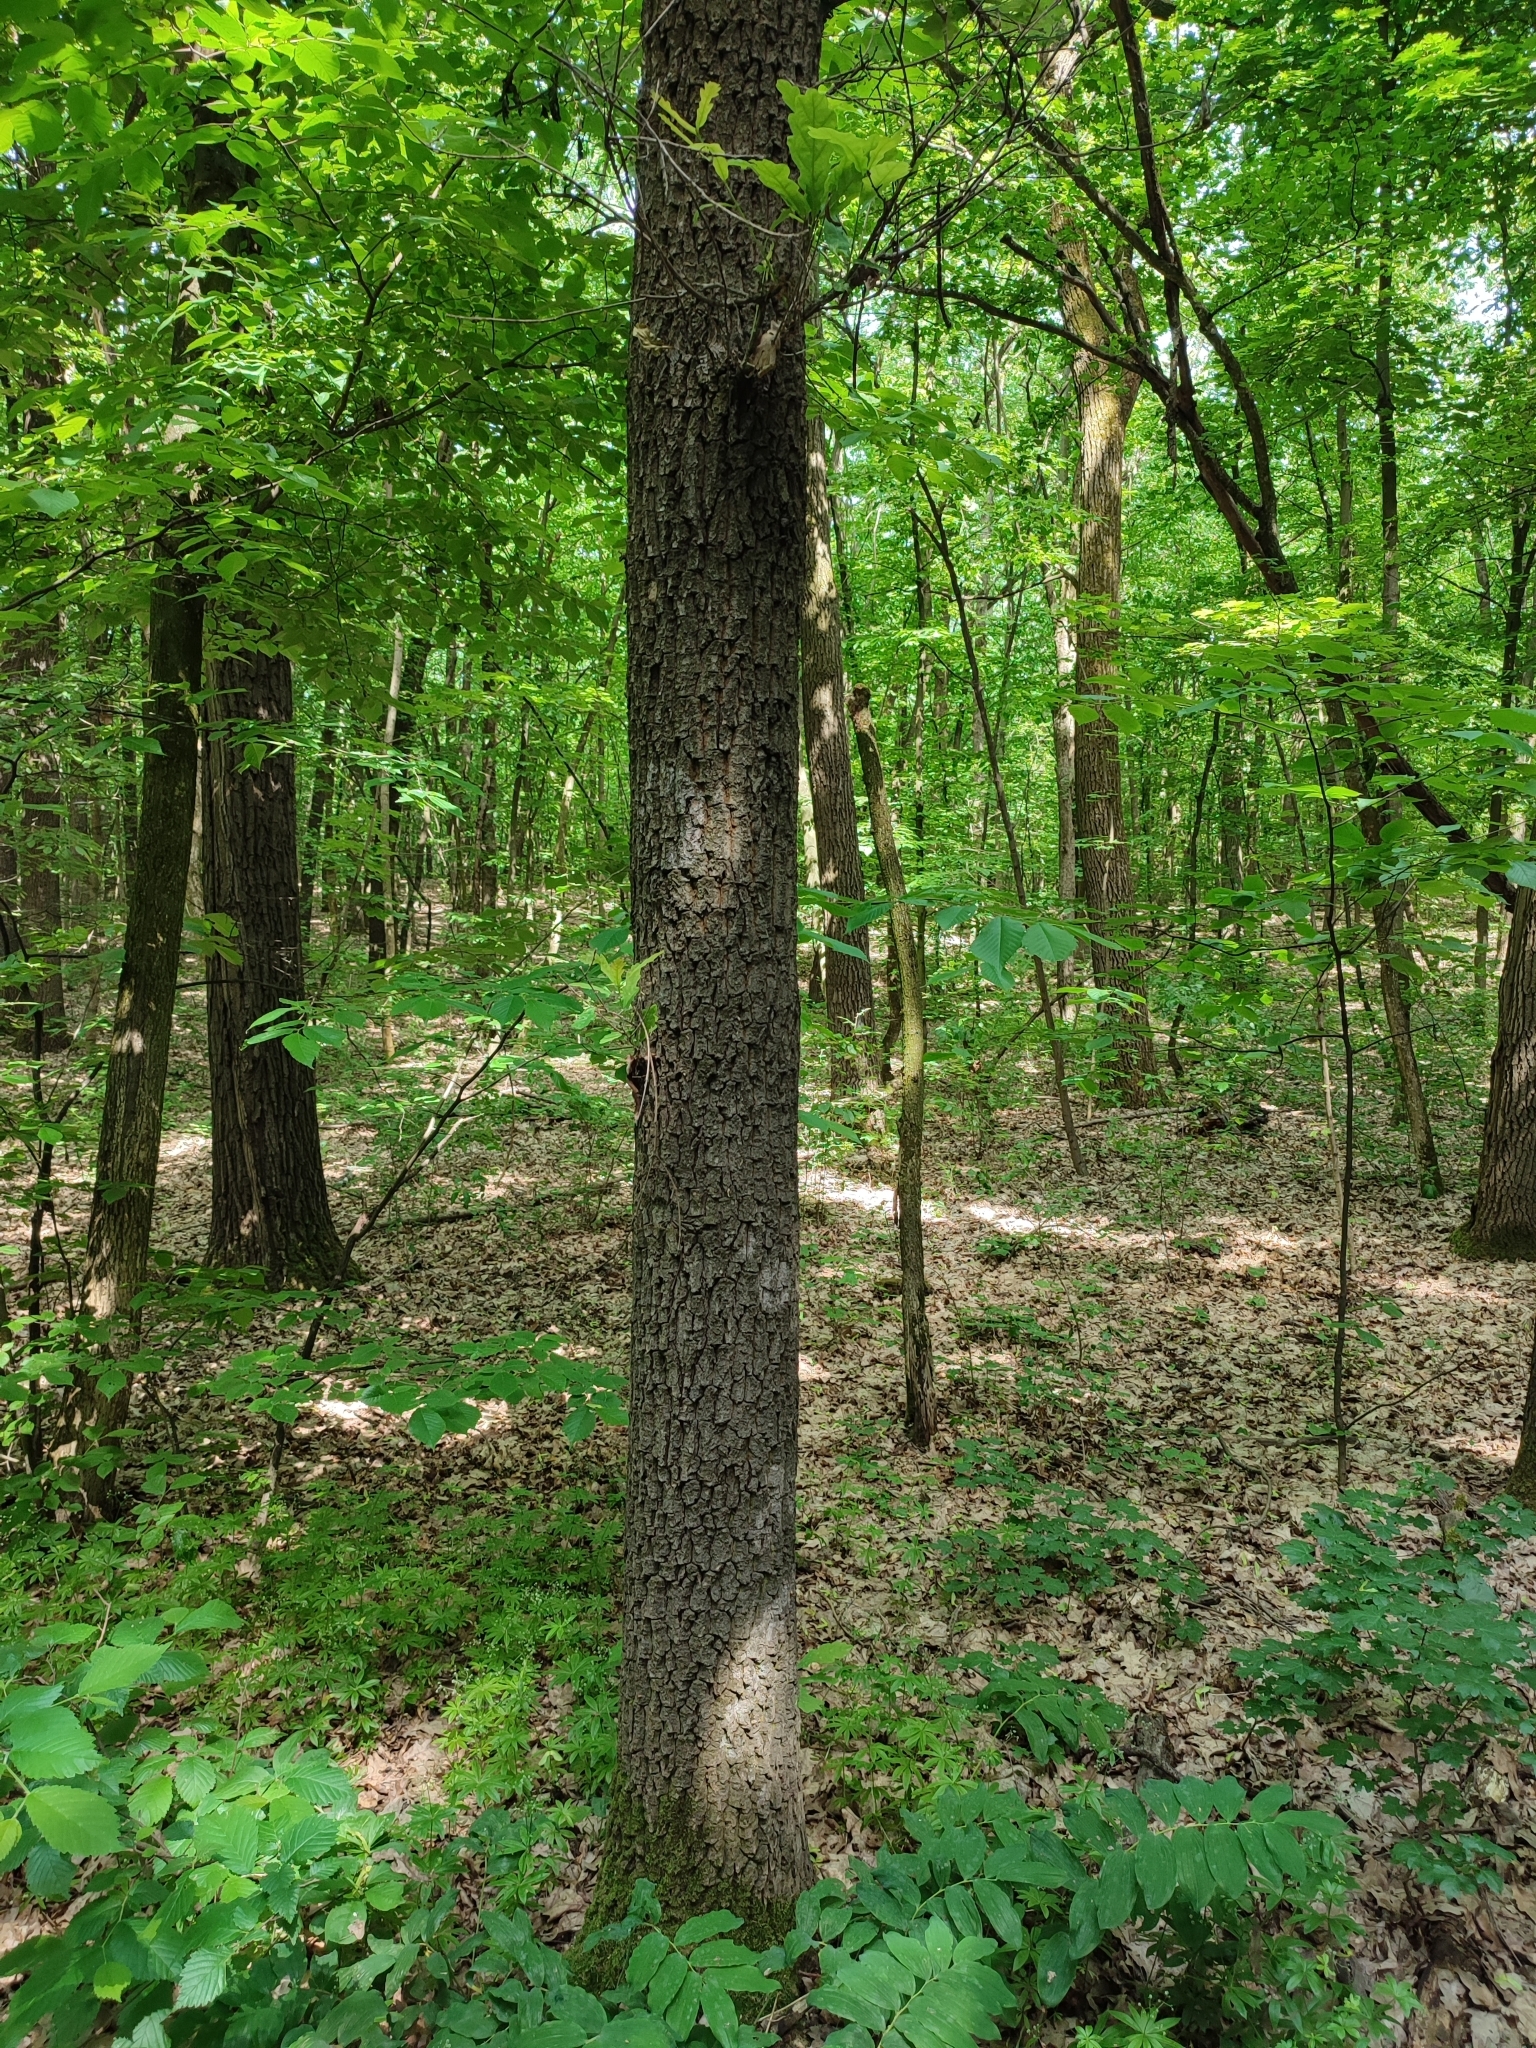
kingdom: Plantae
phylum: Tracheophyta
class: Magnoliopsida
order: Fagales
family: Fagaceae
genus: Quercus
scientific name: Quercus robur
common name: Pedunculate oak
